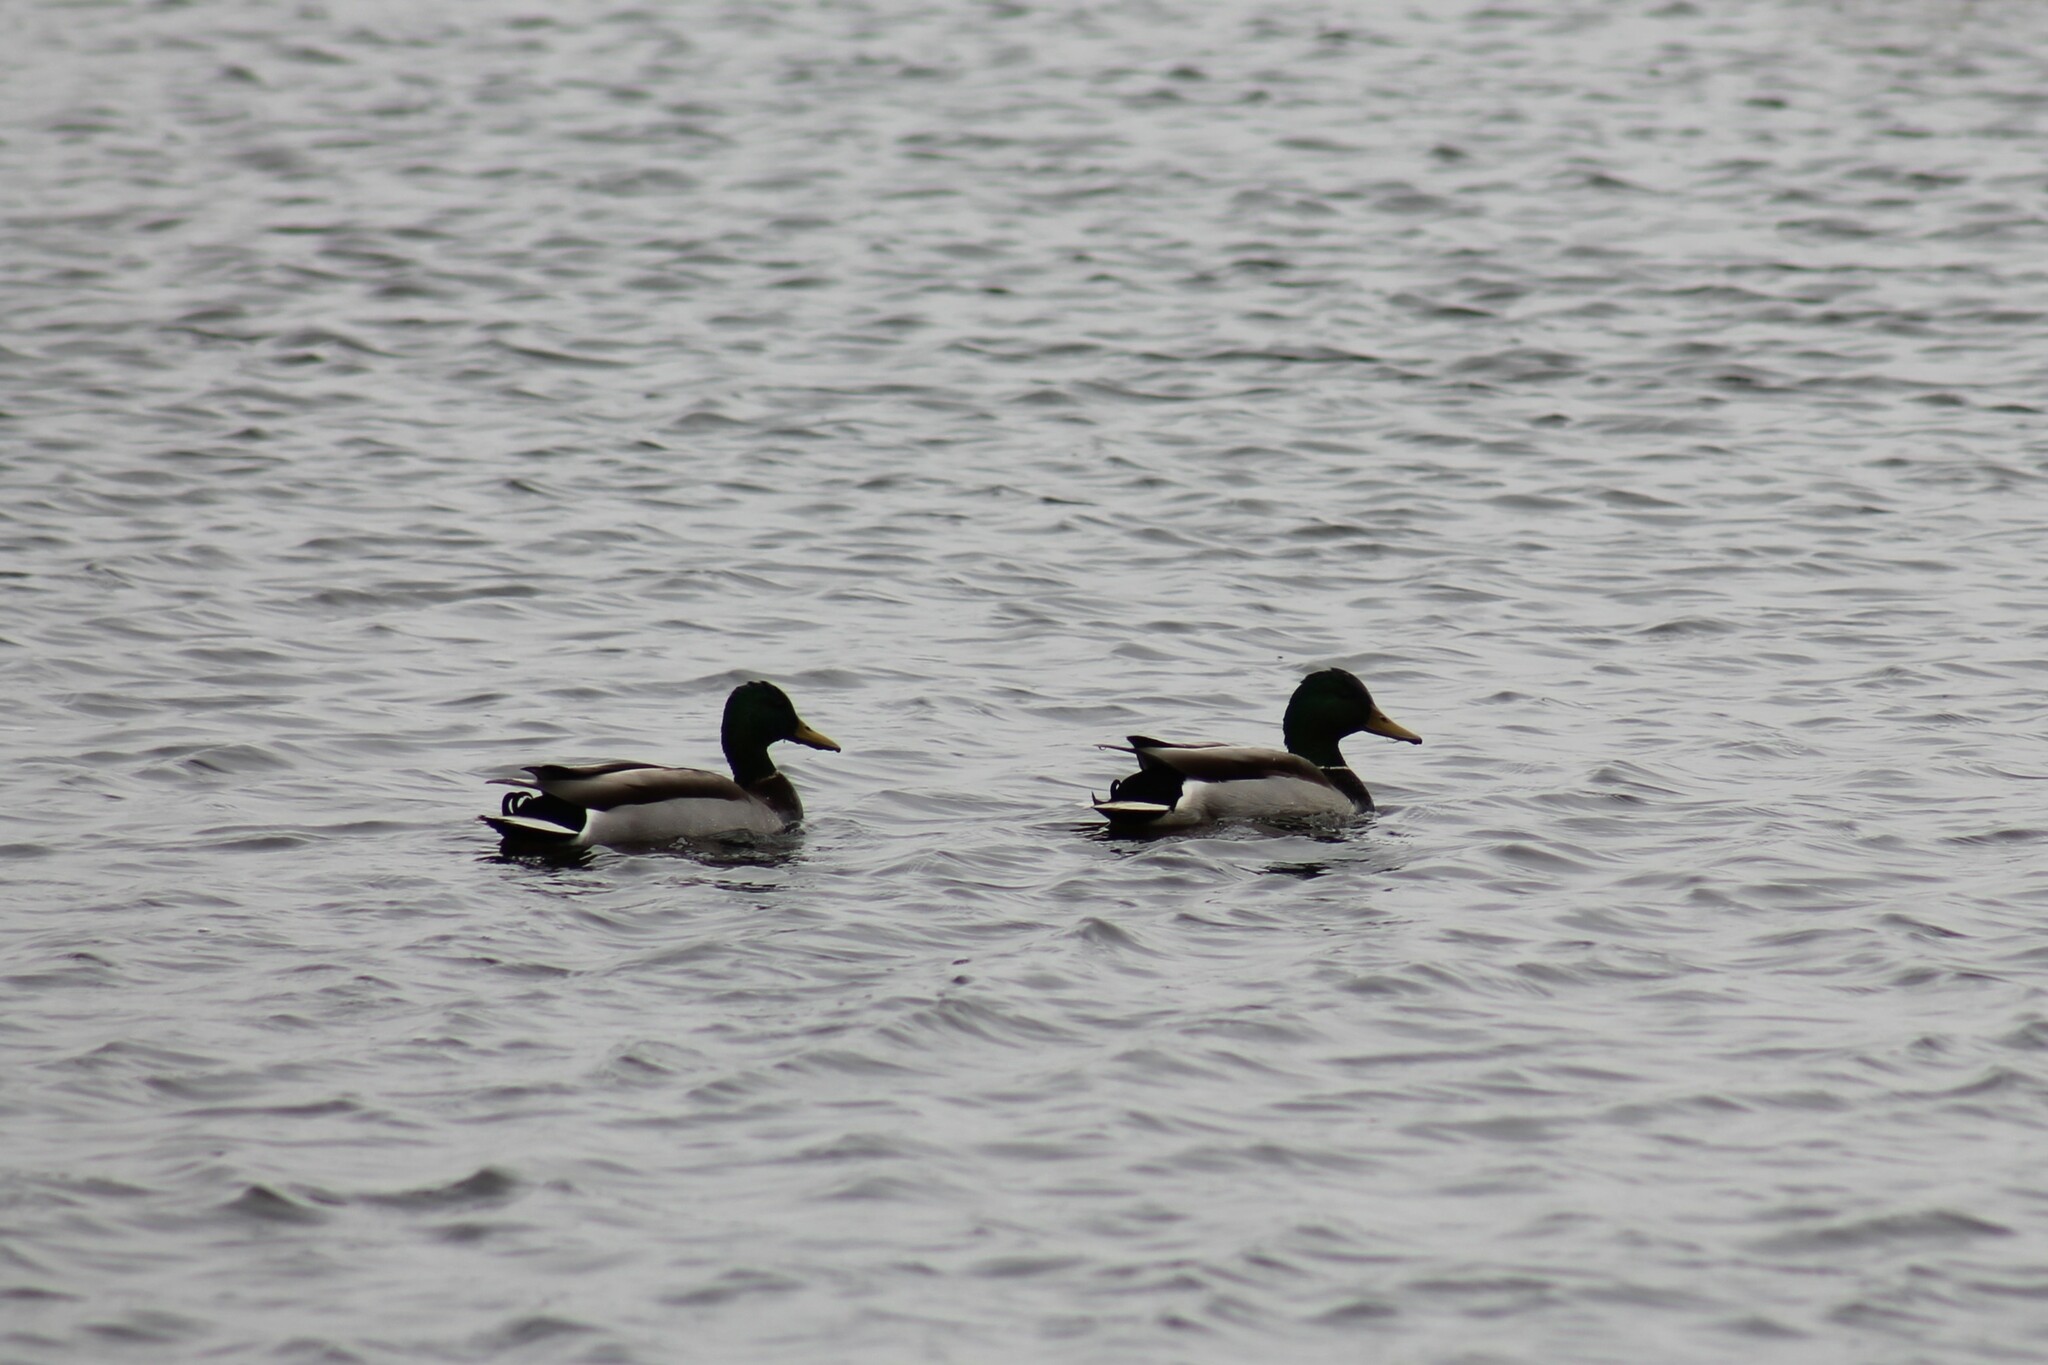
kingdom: Animalia
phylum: Chordata
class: Aves
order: Anseriformes
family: Anatidae
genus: Anas
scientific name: Anas platyrhynchos
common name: Mallard
